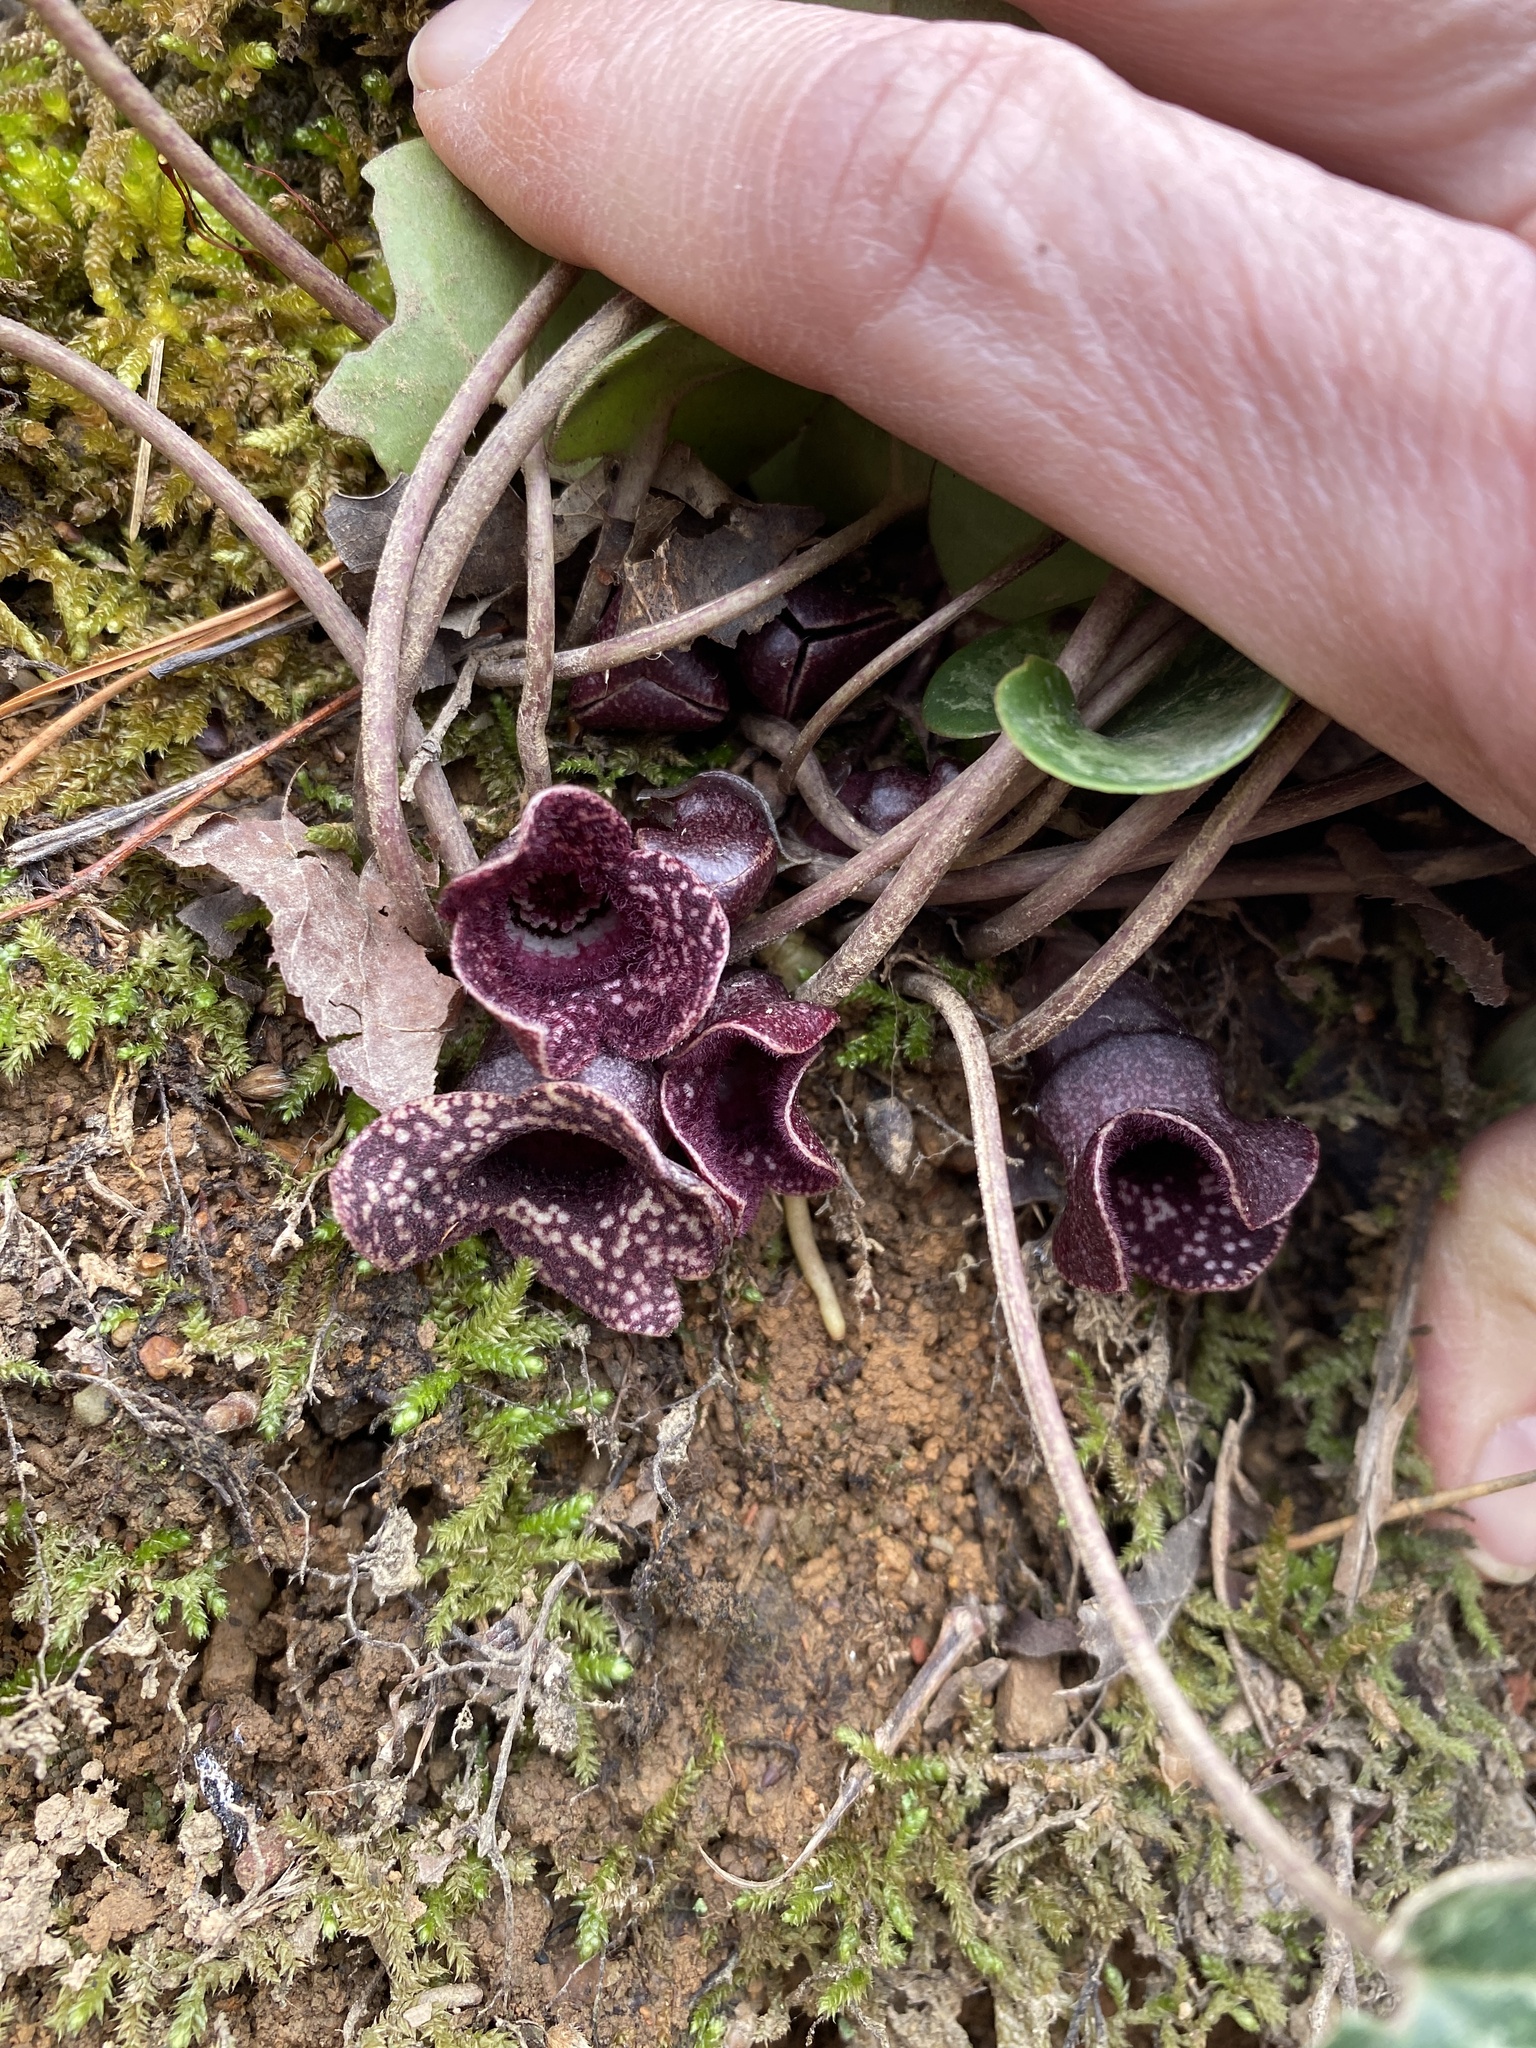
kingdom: Plantae
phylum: Tracheophyta
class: Magnoliopsida
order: Piperales
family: Aristolochiaceae
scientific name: Aristolochiaceae
